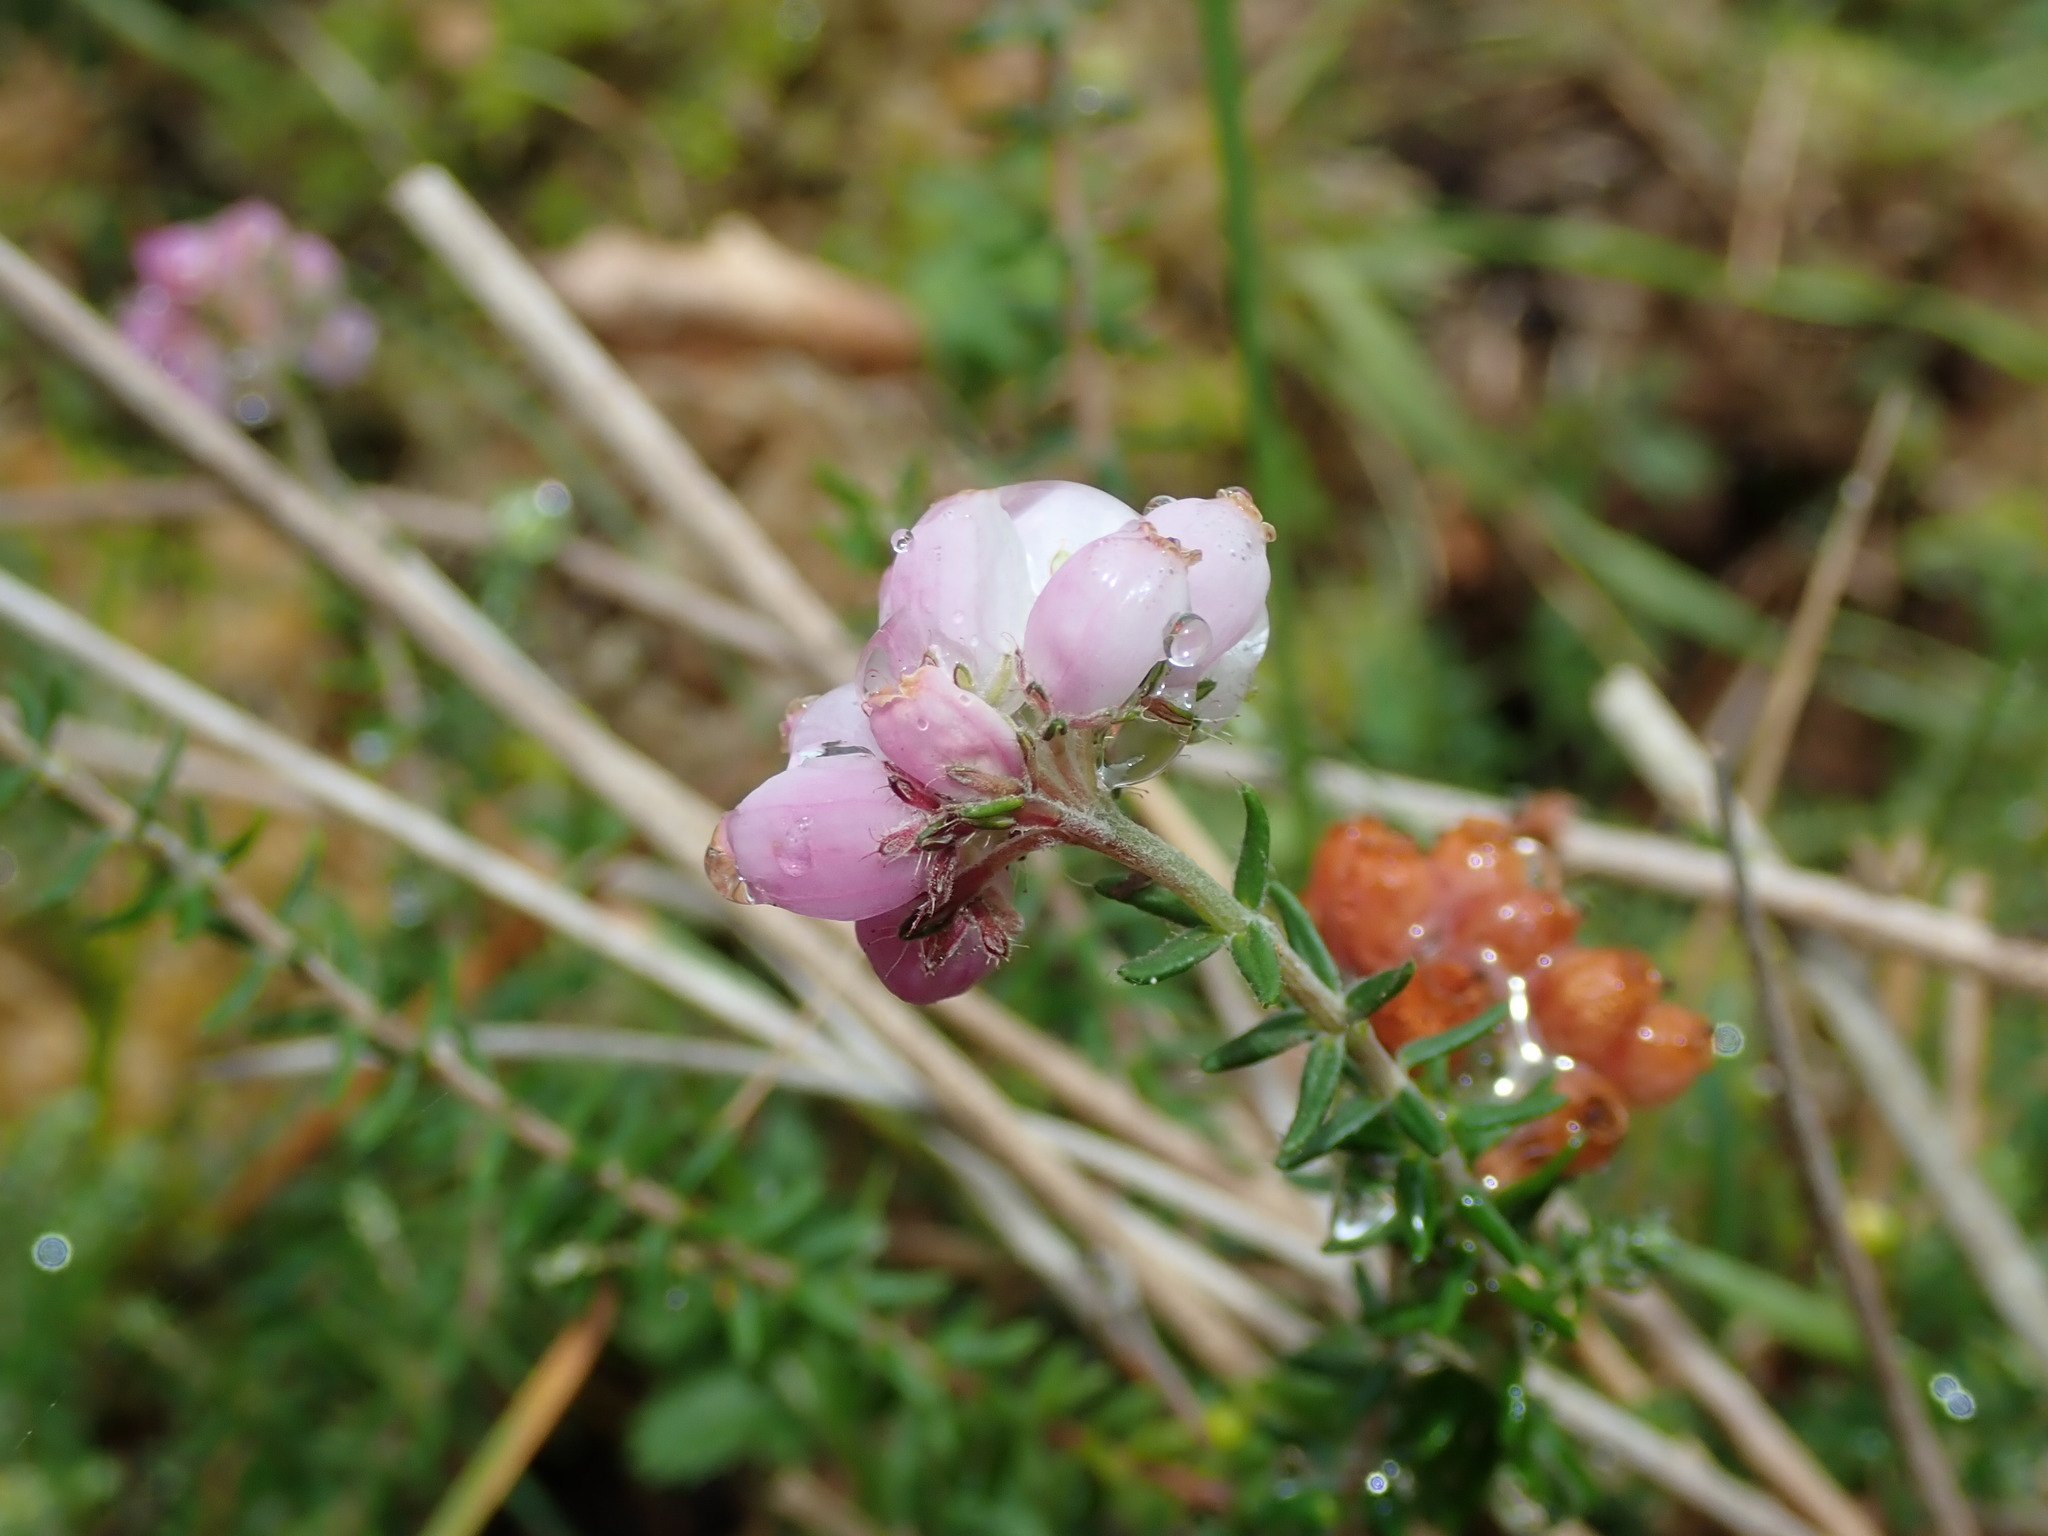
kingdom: Plantae
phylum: Tracheophyta
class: Magnoliopsida
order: Ericales
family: Ericaceae
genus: Erica
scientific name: Erica tetralix
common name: Cross-leaved heath
